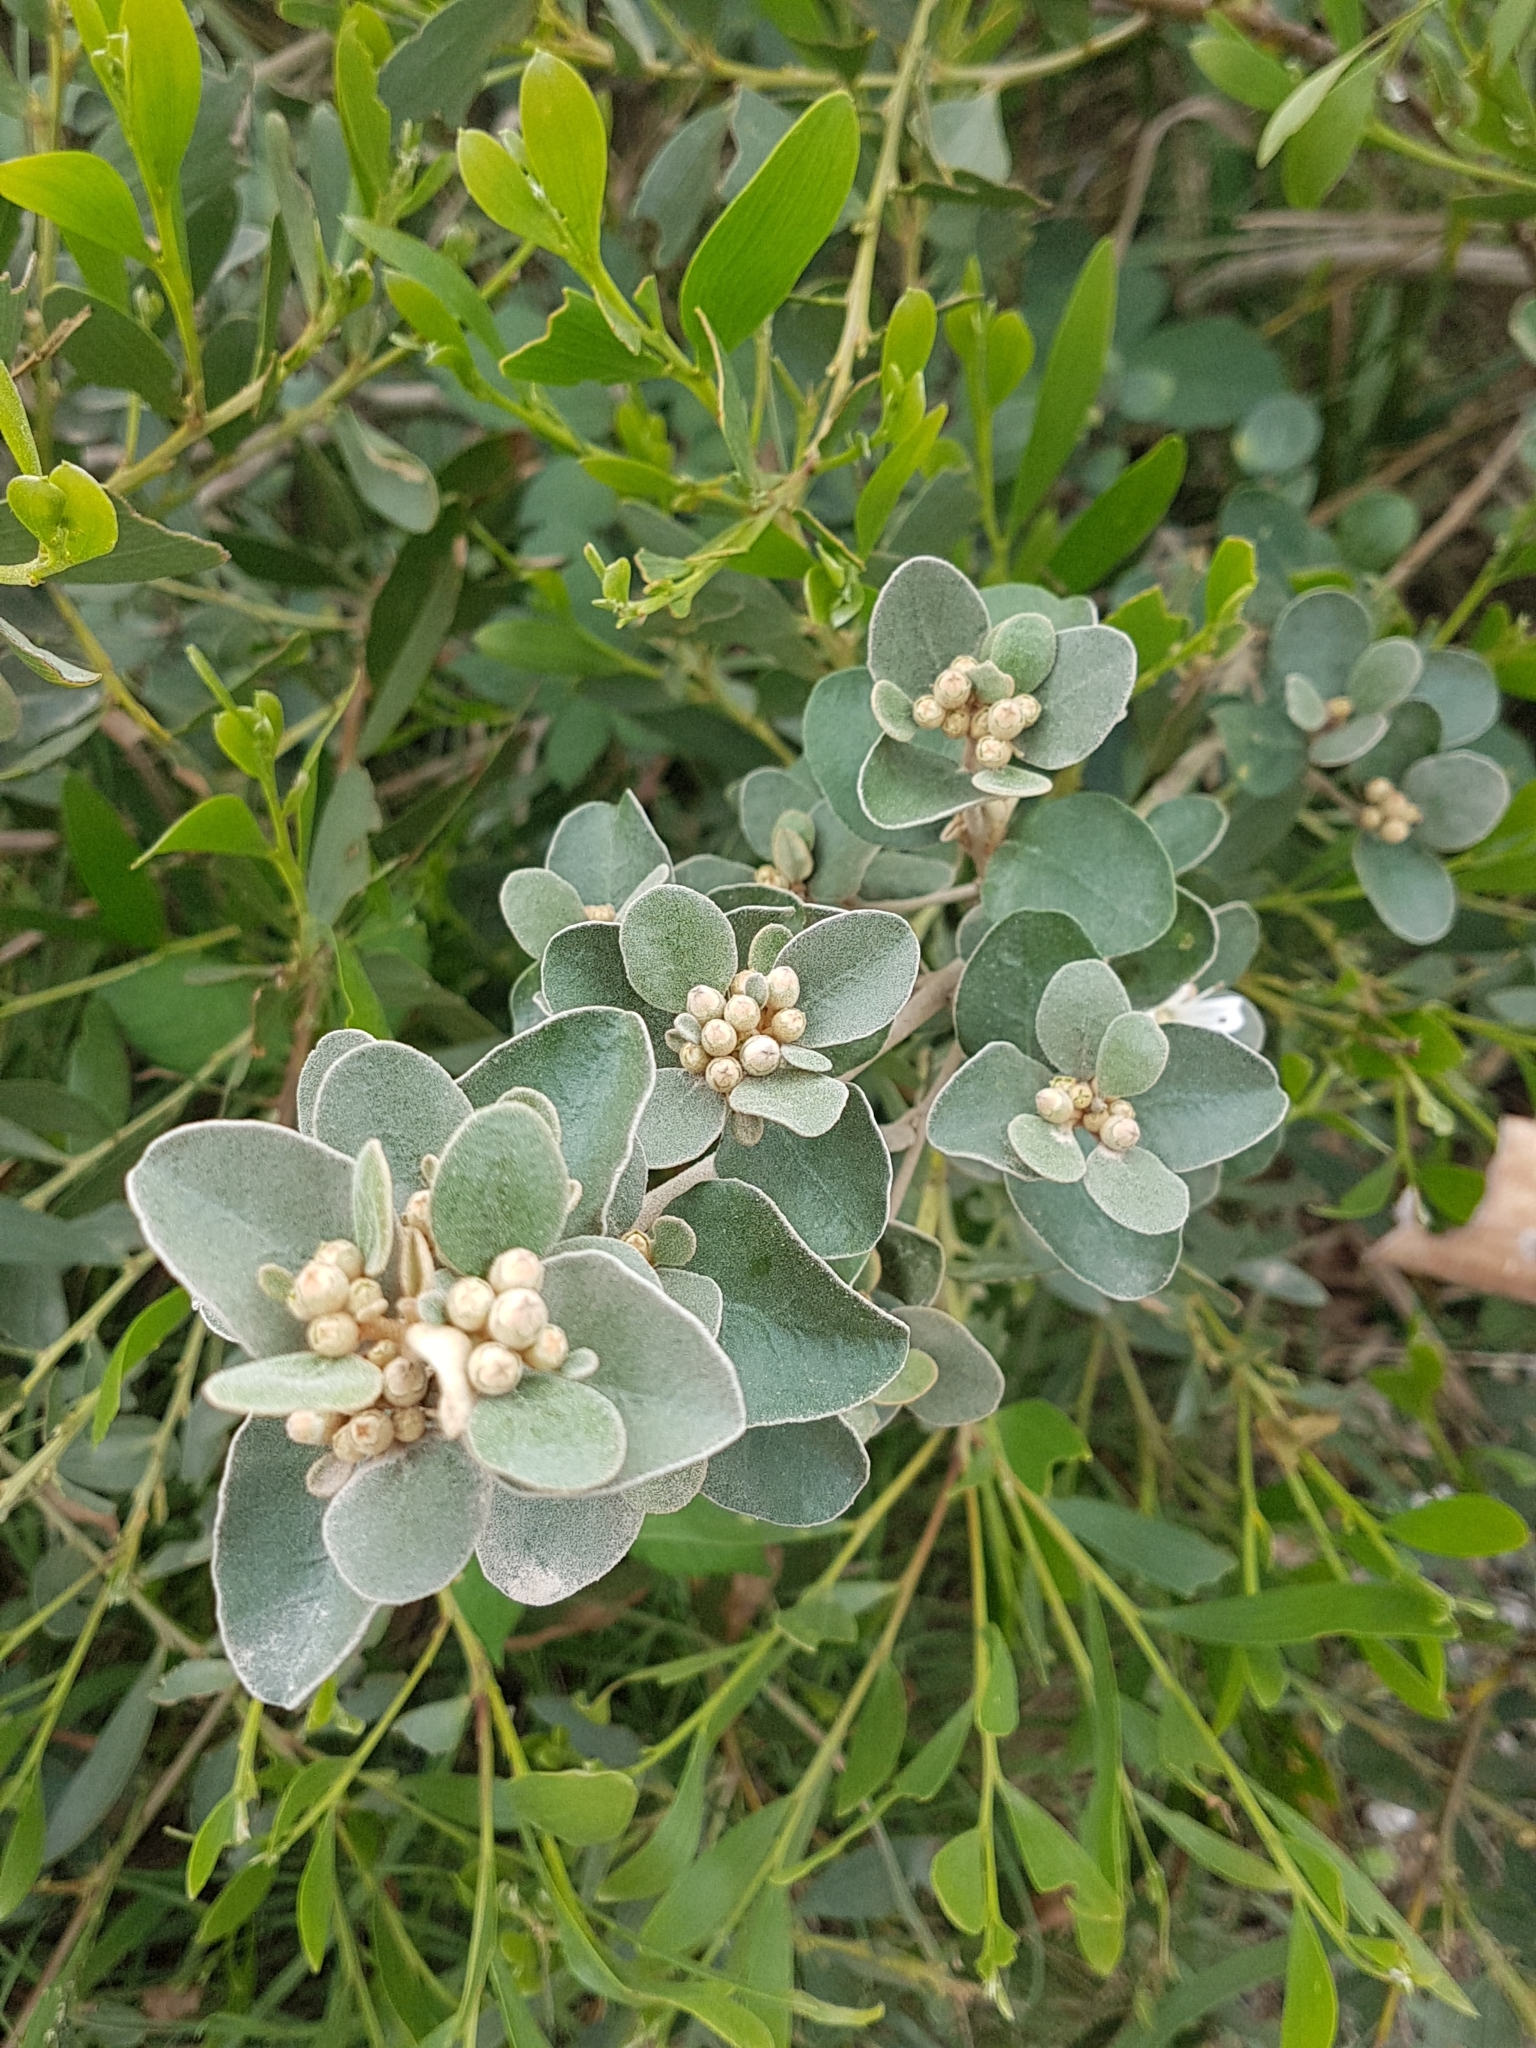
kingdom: Plantae
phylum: Tracheophyta
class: Magnoliopsida
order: Sapindales
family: Rutaceae
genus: Correa
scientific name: Correa alba
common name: White correa
